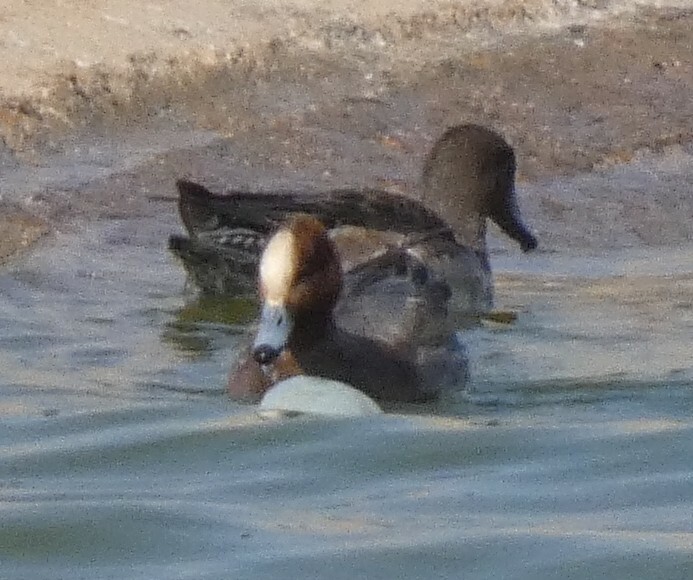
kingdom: Animalia
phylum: Chordata
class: Aves
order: Anseriformes
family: Anatidae
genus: Mareca
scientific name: Mareca penelope
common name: Eurasian wigeon
